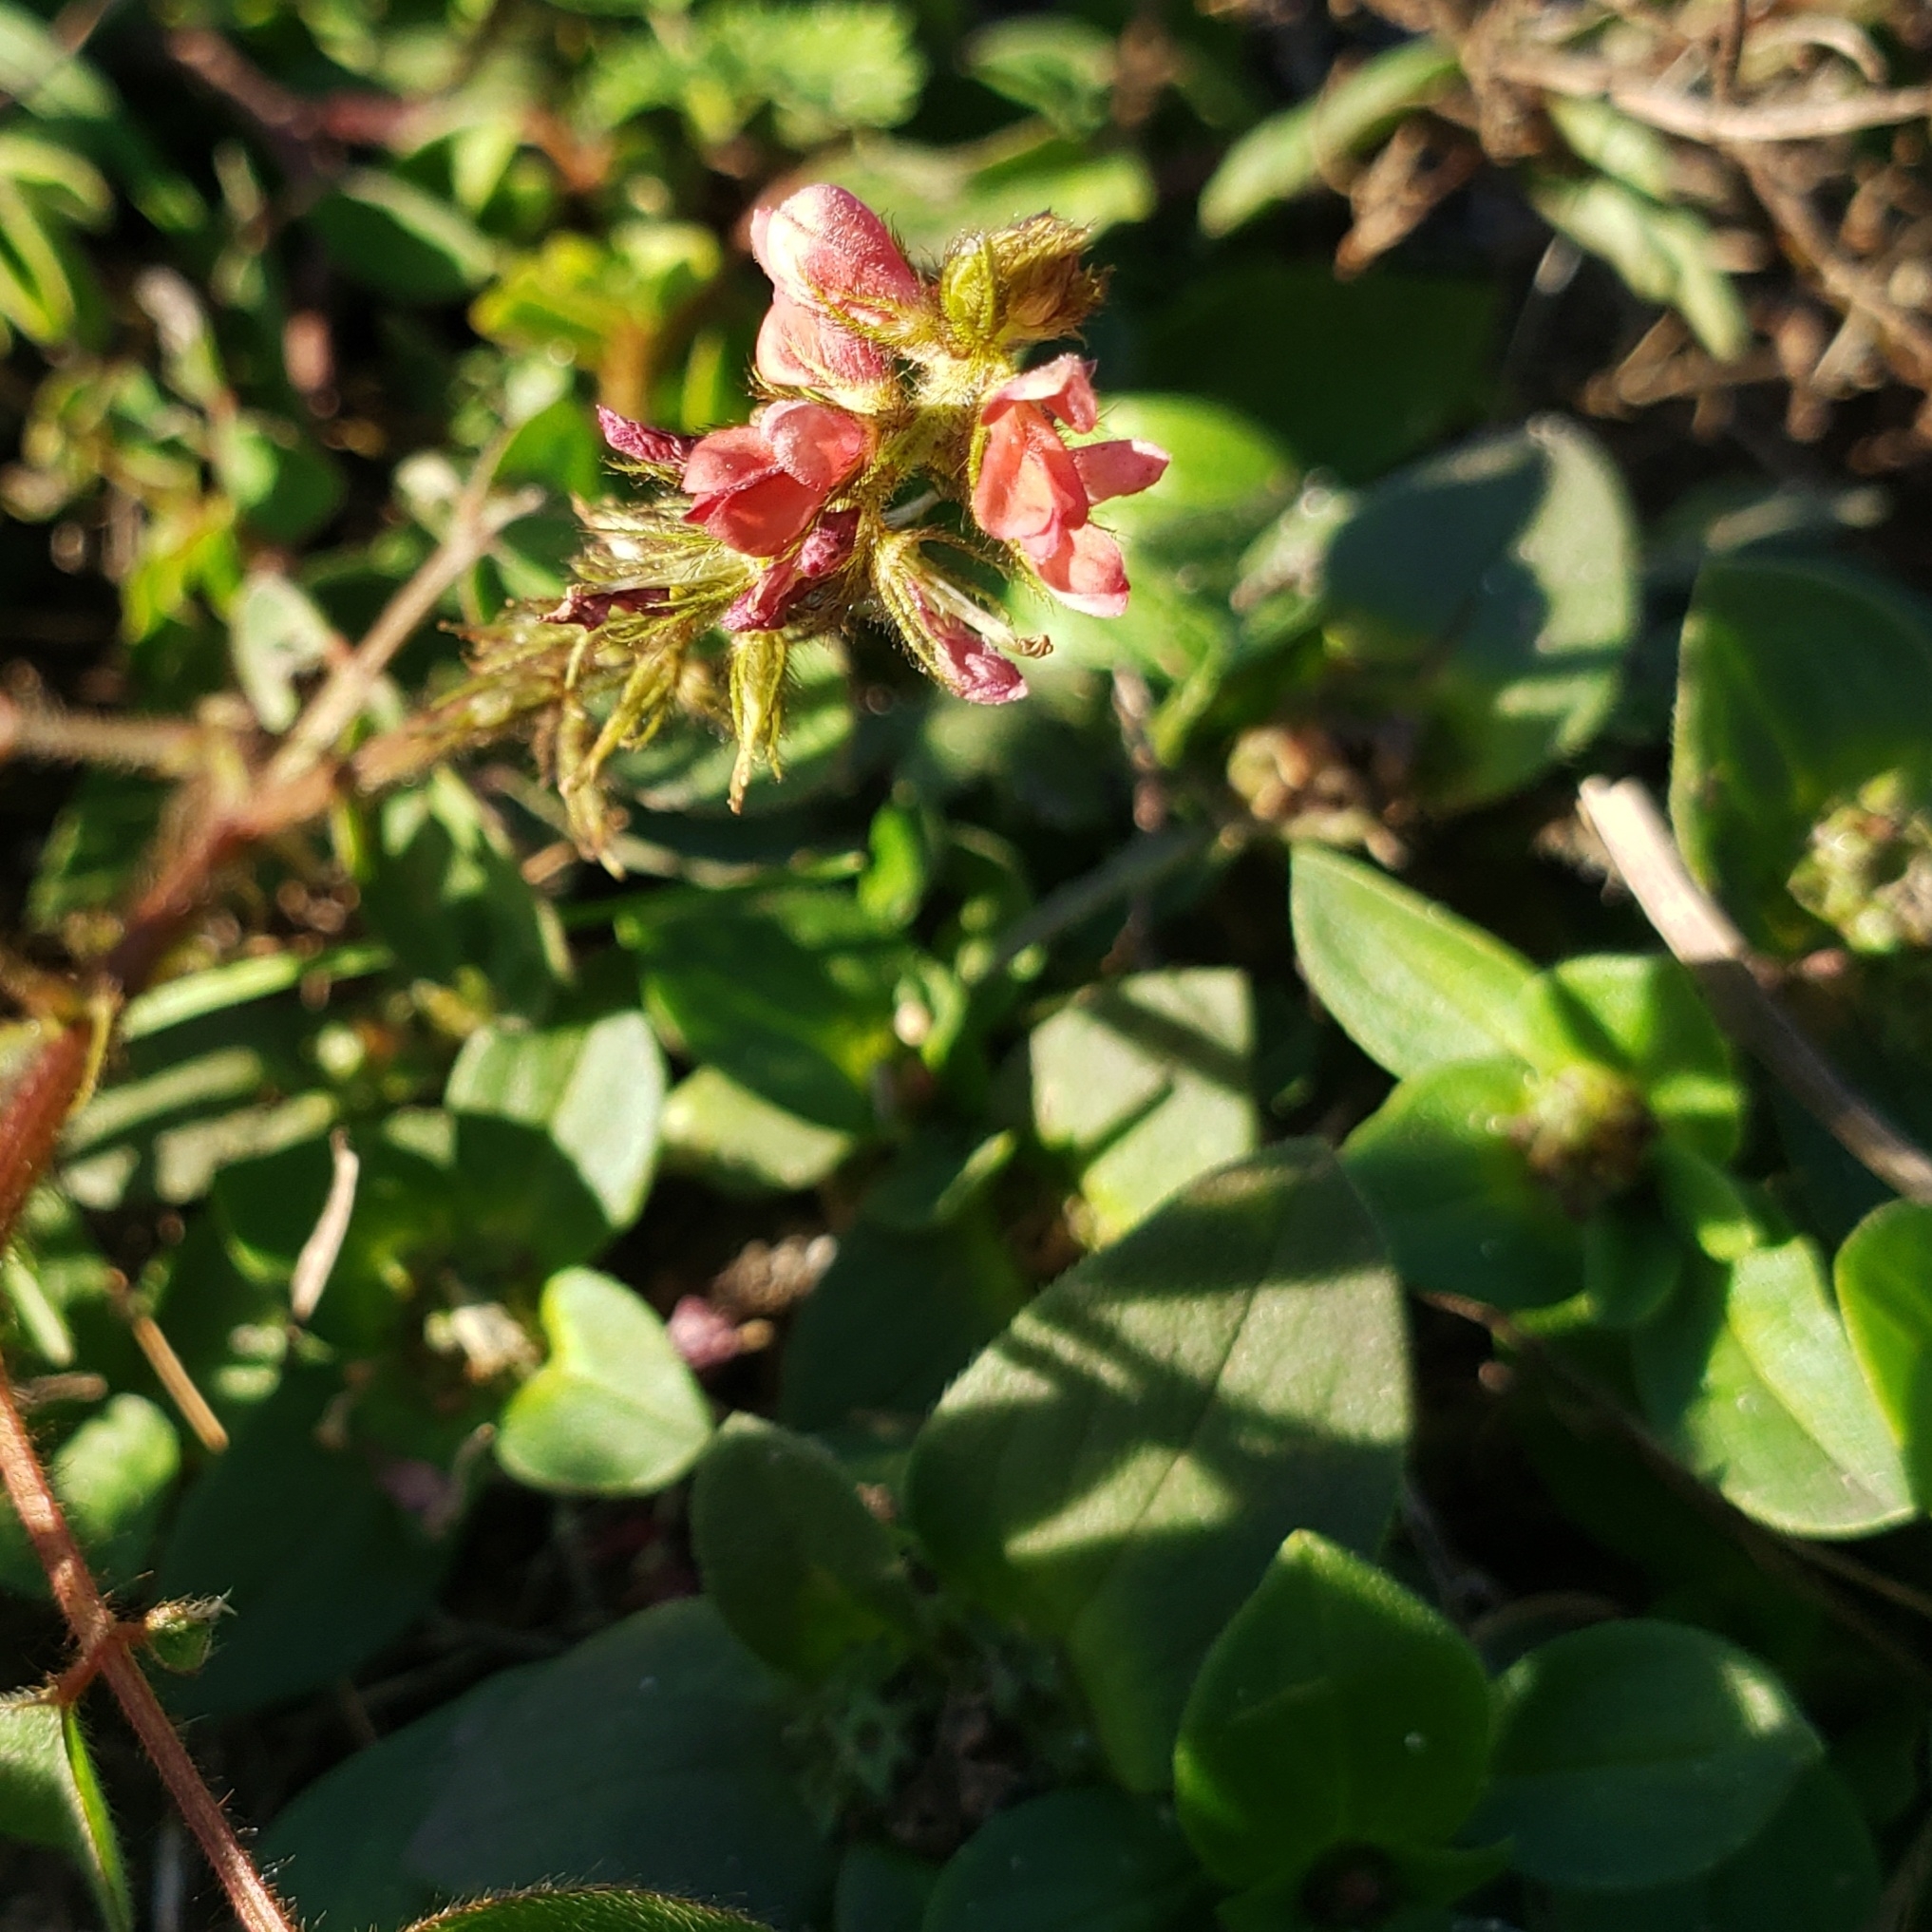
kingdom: Plantae
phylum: Tracheophyta
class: Magnoliopsida
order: Fabales
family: Fabaceae
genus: Indigofera
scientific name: Indigofera hirsuta
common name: Hairy indigo
